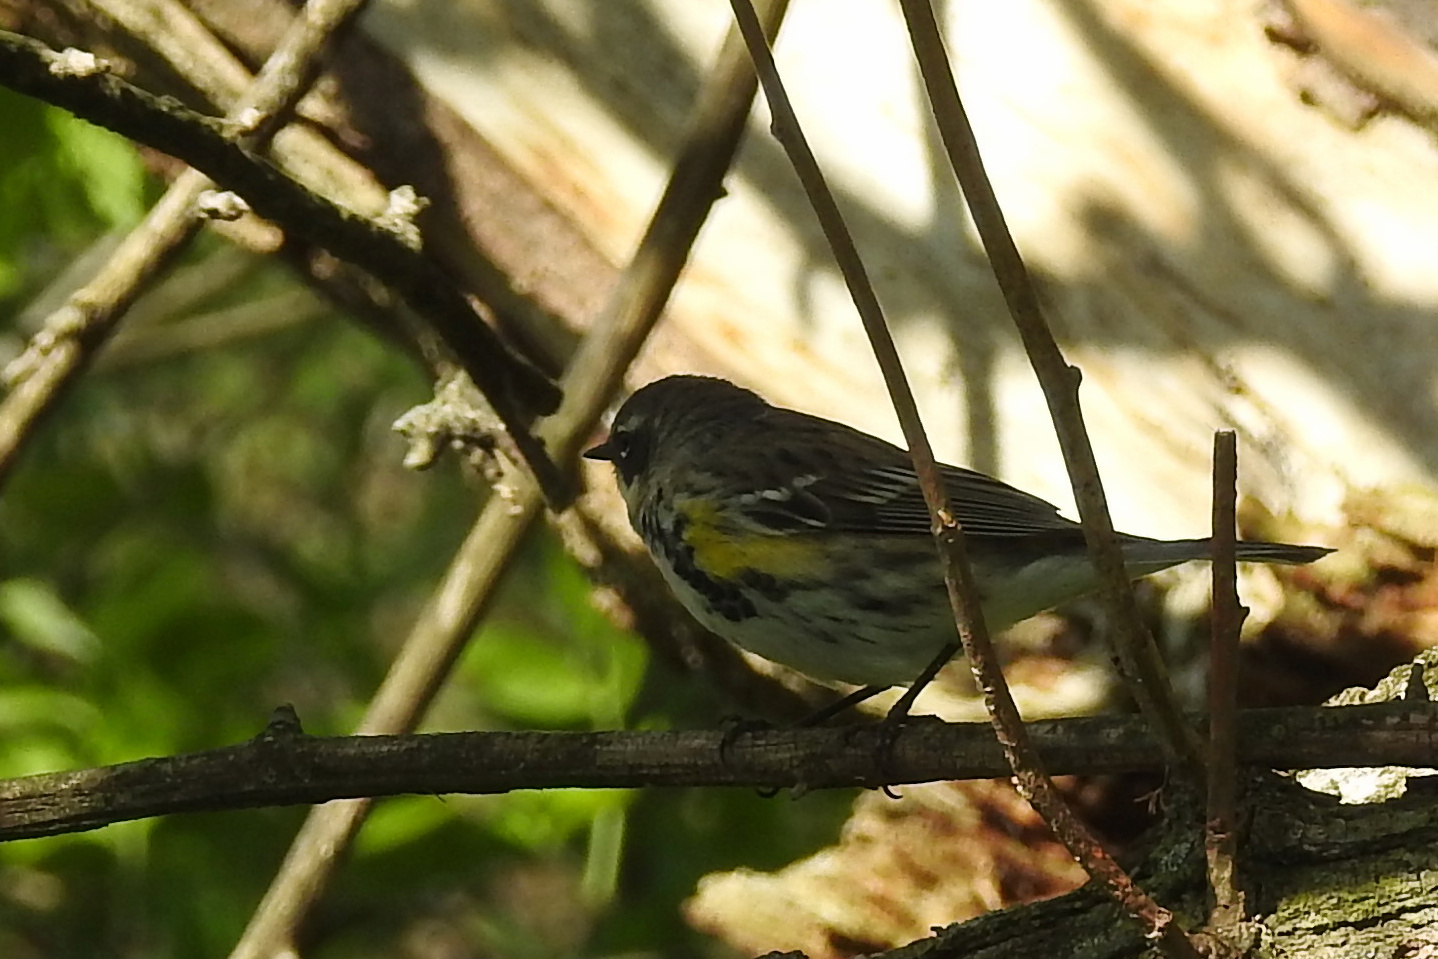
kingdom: Animalia
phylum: Chordata
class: Aves
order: Passeriformes
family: Parulidae
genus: Setophaga
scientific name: Setophaga coronata
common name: Myrtle warbler
